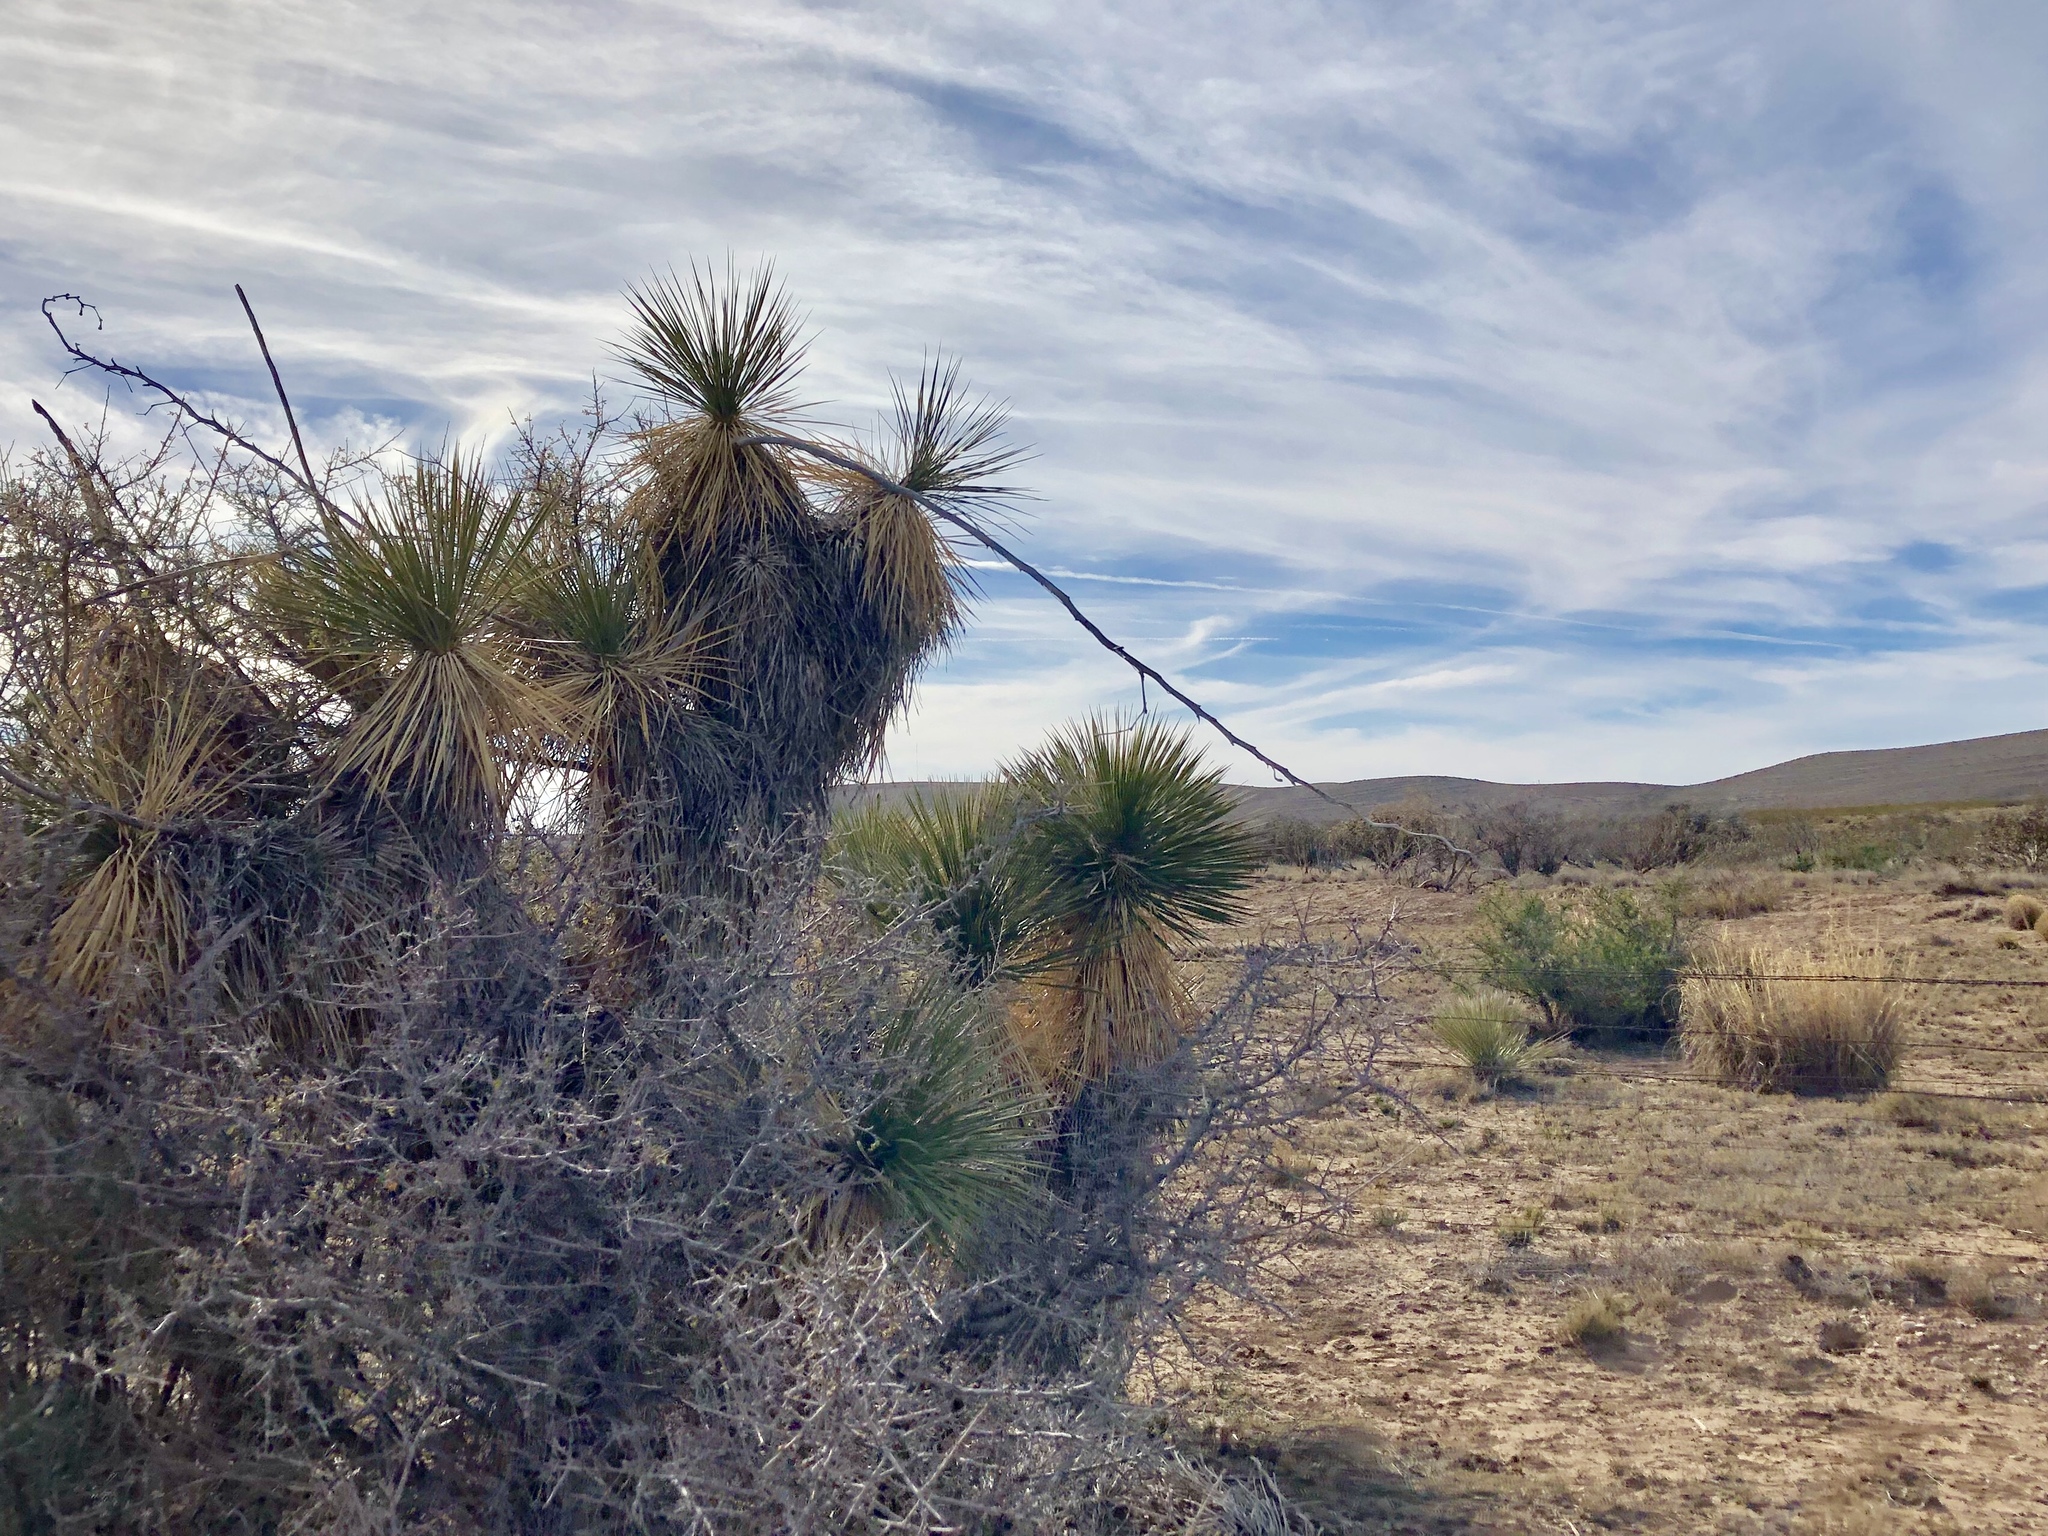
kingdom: Plantae
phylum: Tracheophyta
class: Liliopsida
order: Asparagales
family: Asparagaceae
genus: Yucca
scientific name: Yucca elata
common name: Palmella
